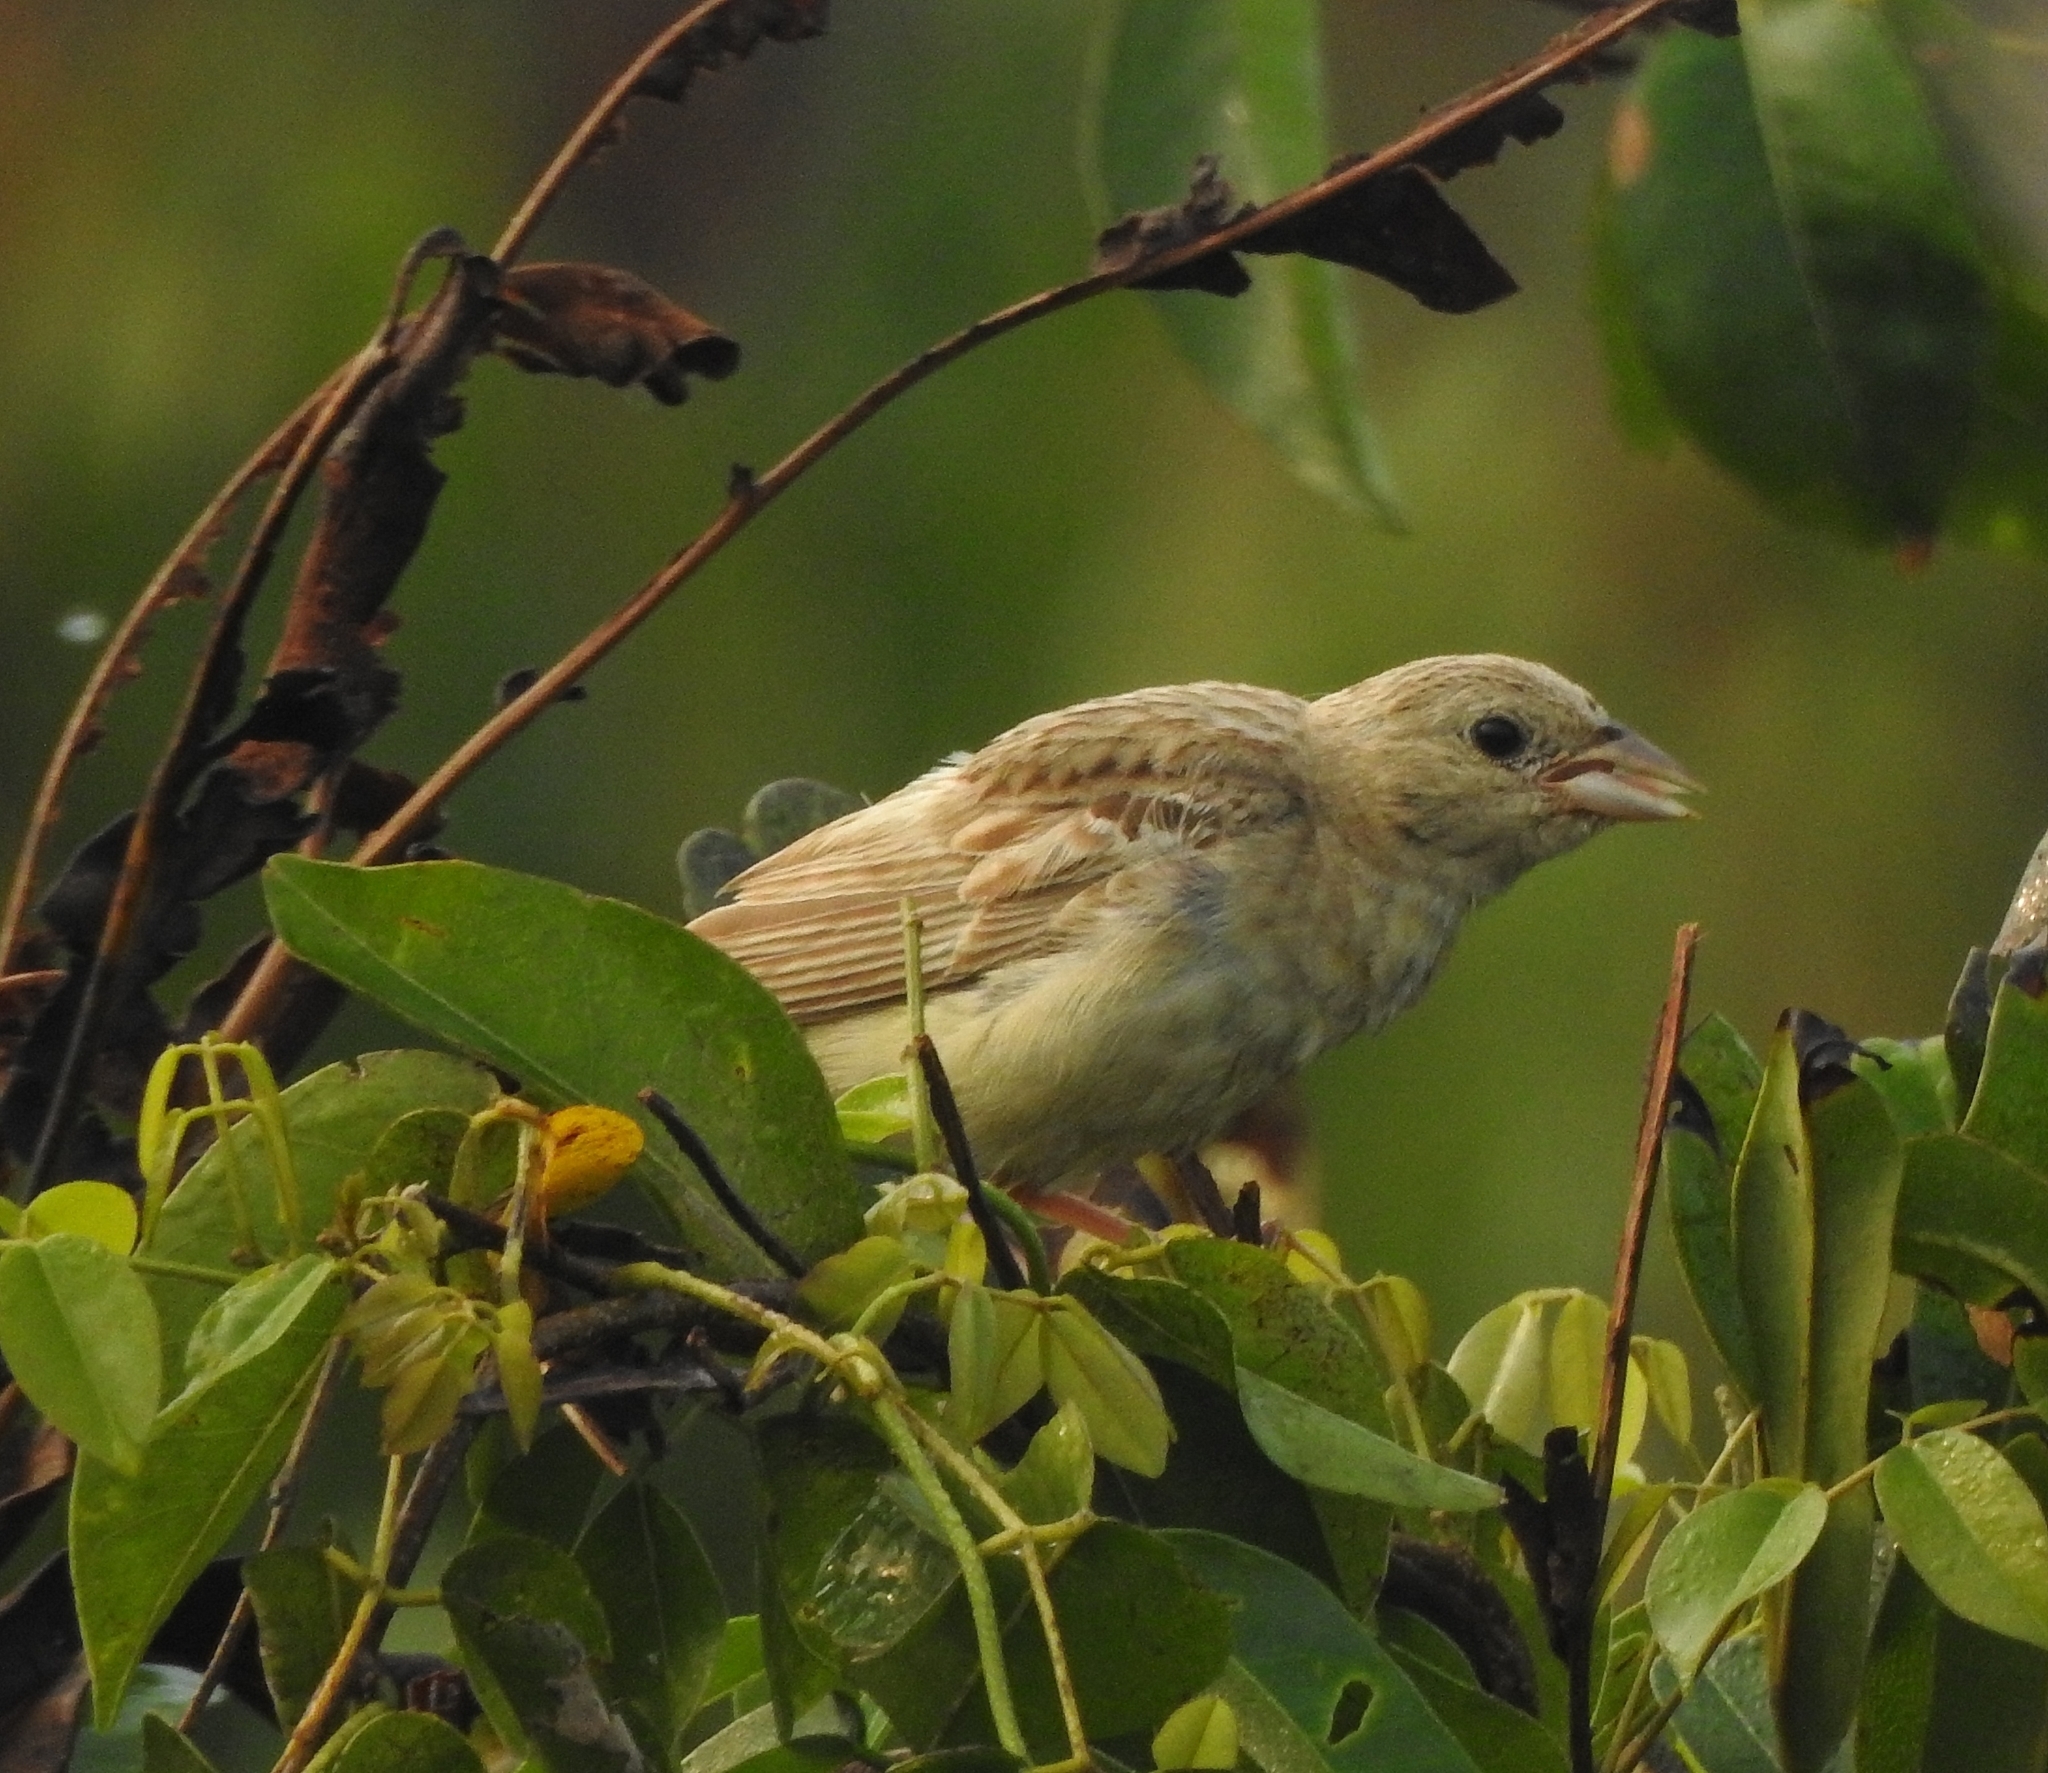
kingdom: Animalia
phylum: Chordata
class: Aves
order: Passeriformes
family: Emberizidae
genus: Emberiza
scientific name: Emberiza melanocephala
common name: Black-headed bunting
